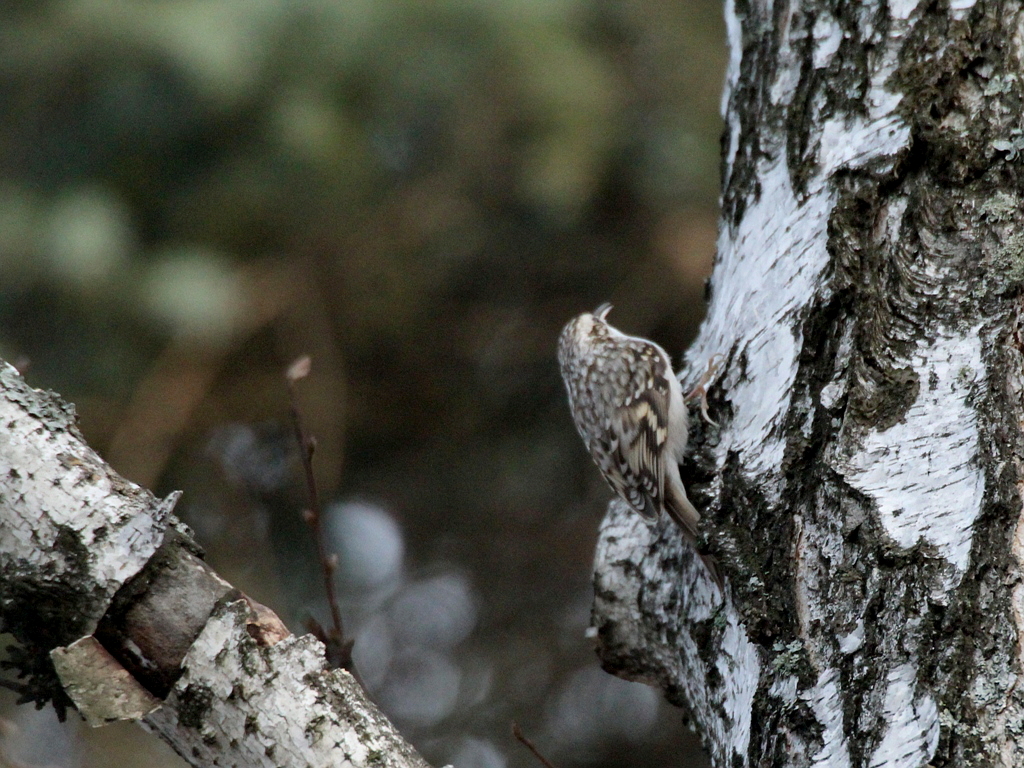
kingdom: Animalia
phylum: Chordata
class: Aves
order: Passeriformes
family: Certhiidae
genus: Certhia
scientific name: Certhia familiaris
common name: Eurasian treecreeper
